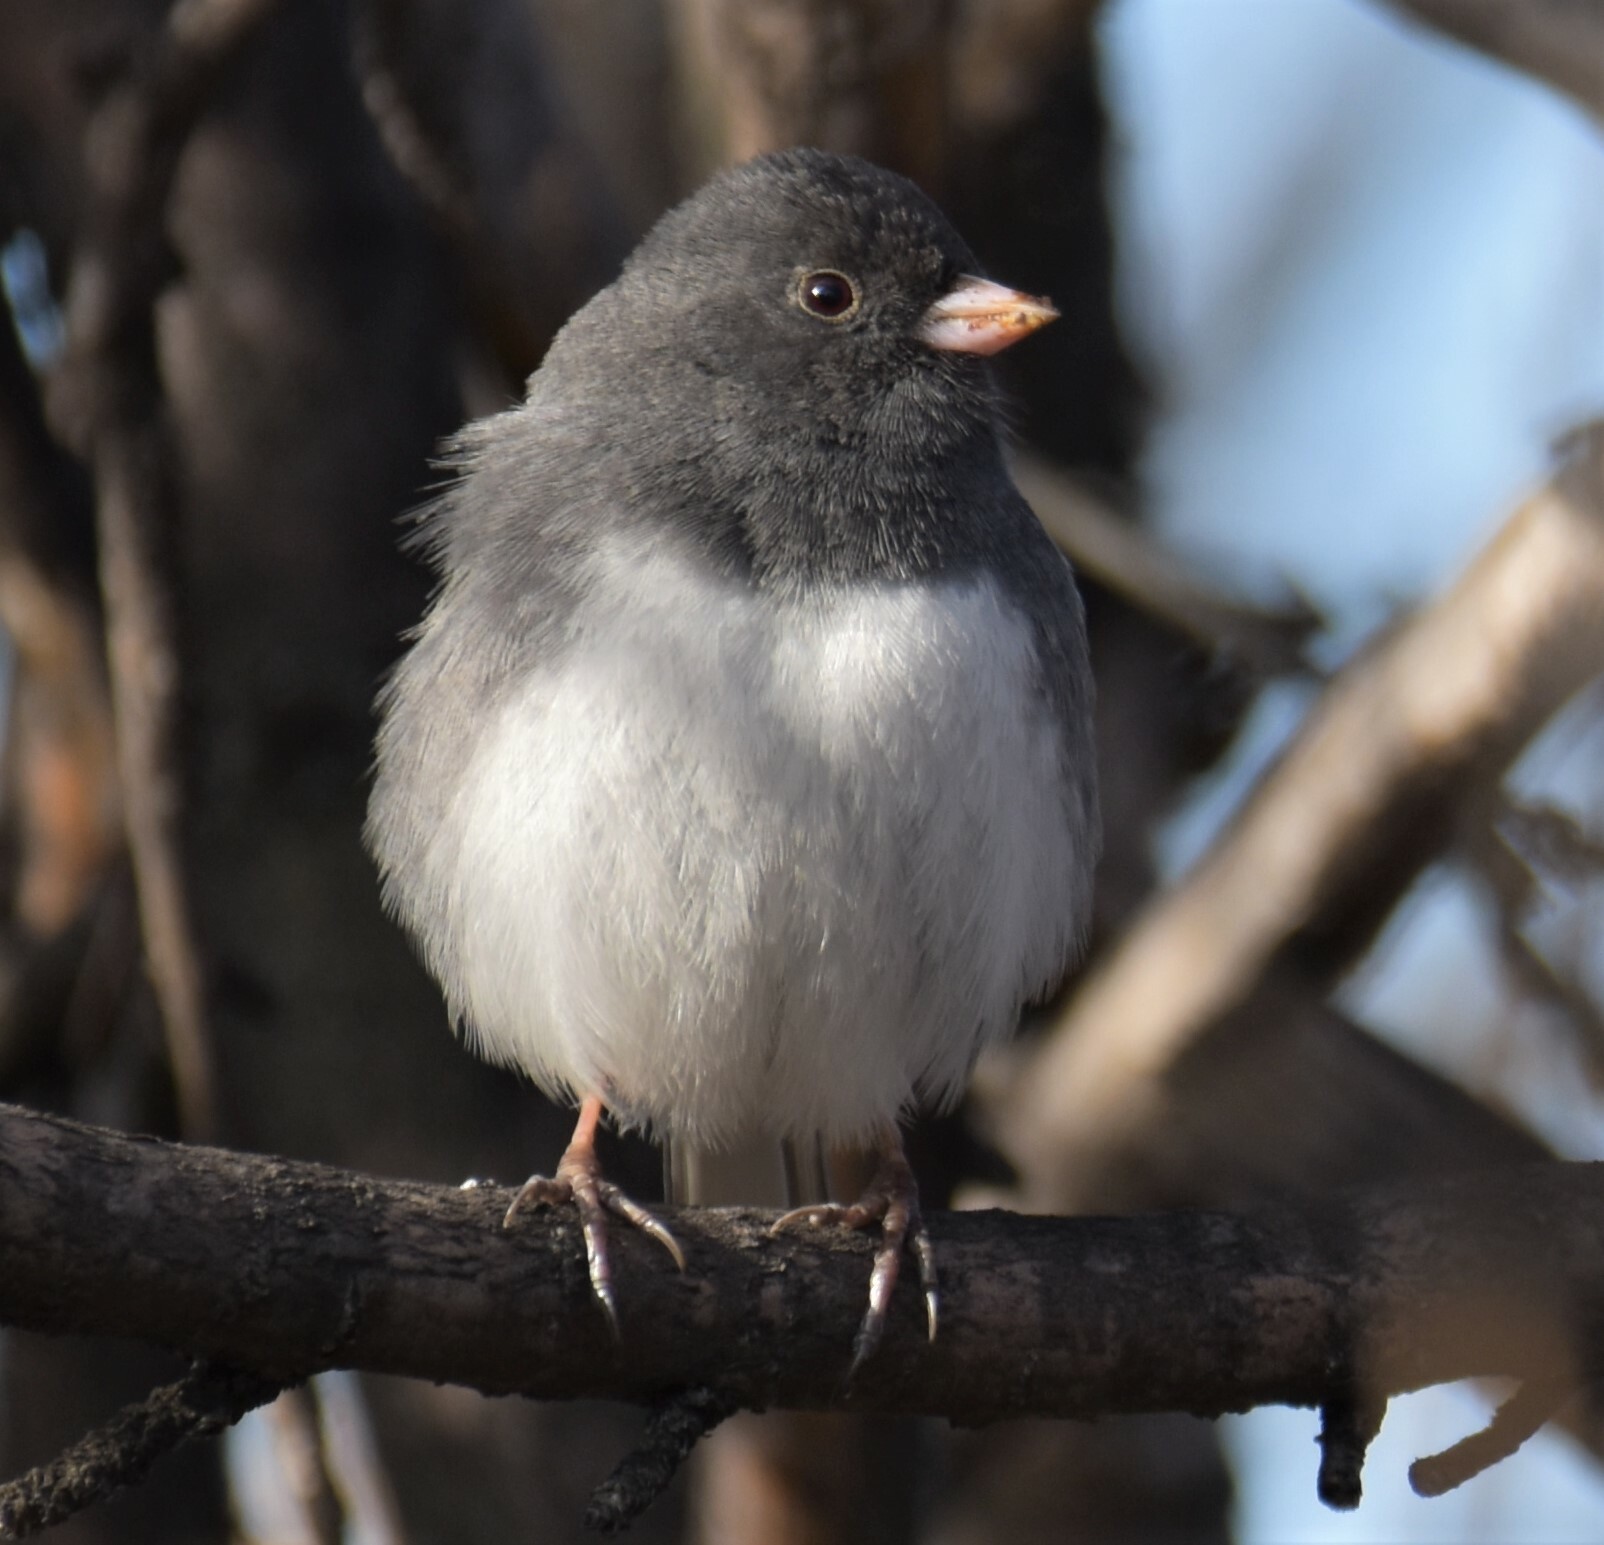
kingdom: Animalia
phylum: Chordata
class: Aves
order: Passeriformes
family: Passerellidae
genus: Junco
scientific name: Junco hyemalis
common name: Dark-eyed junco
